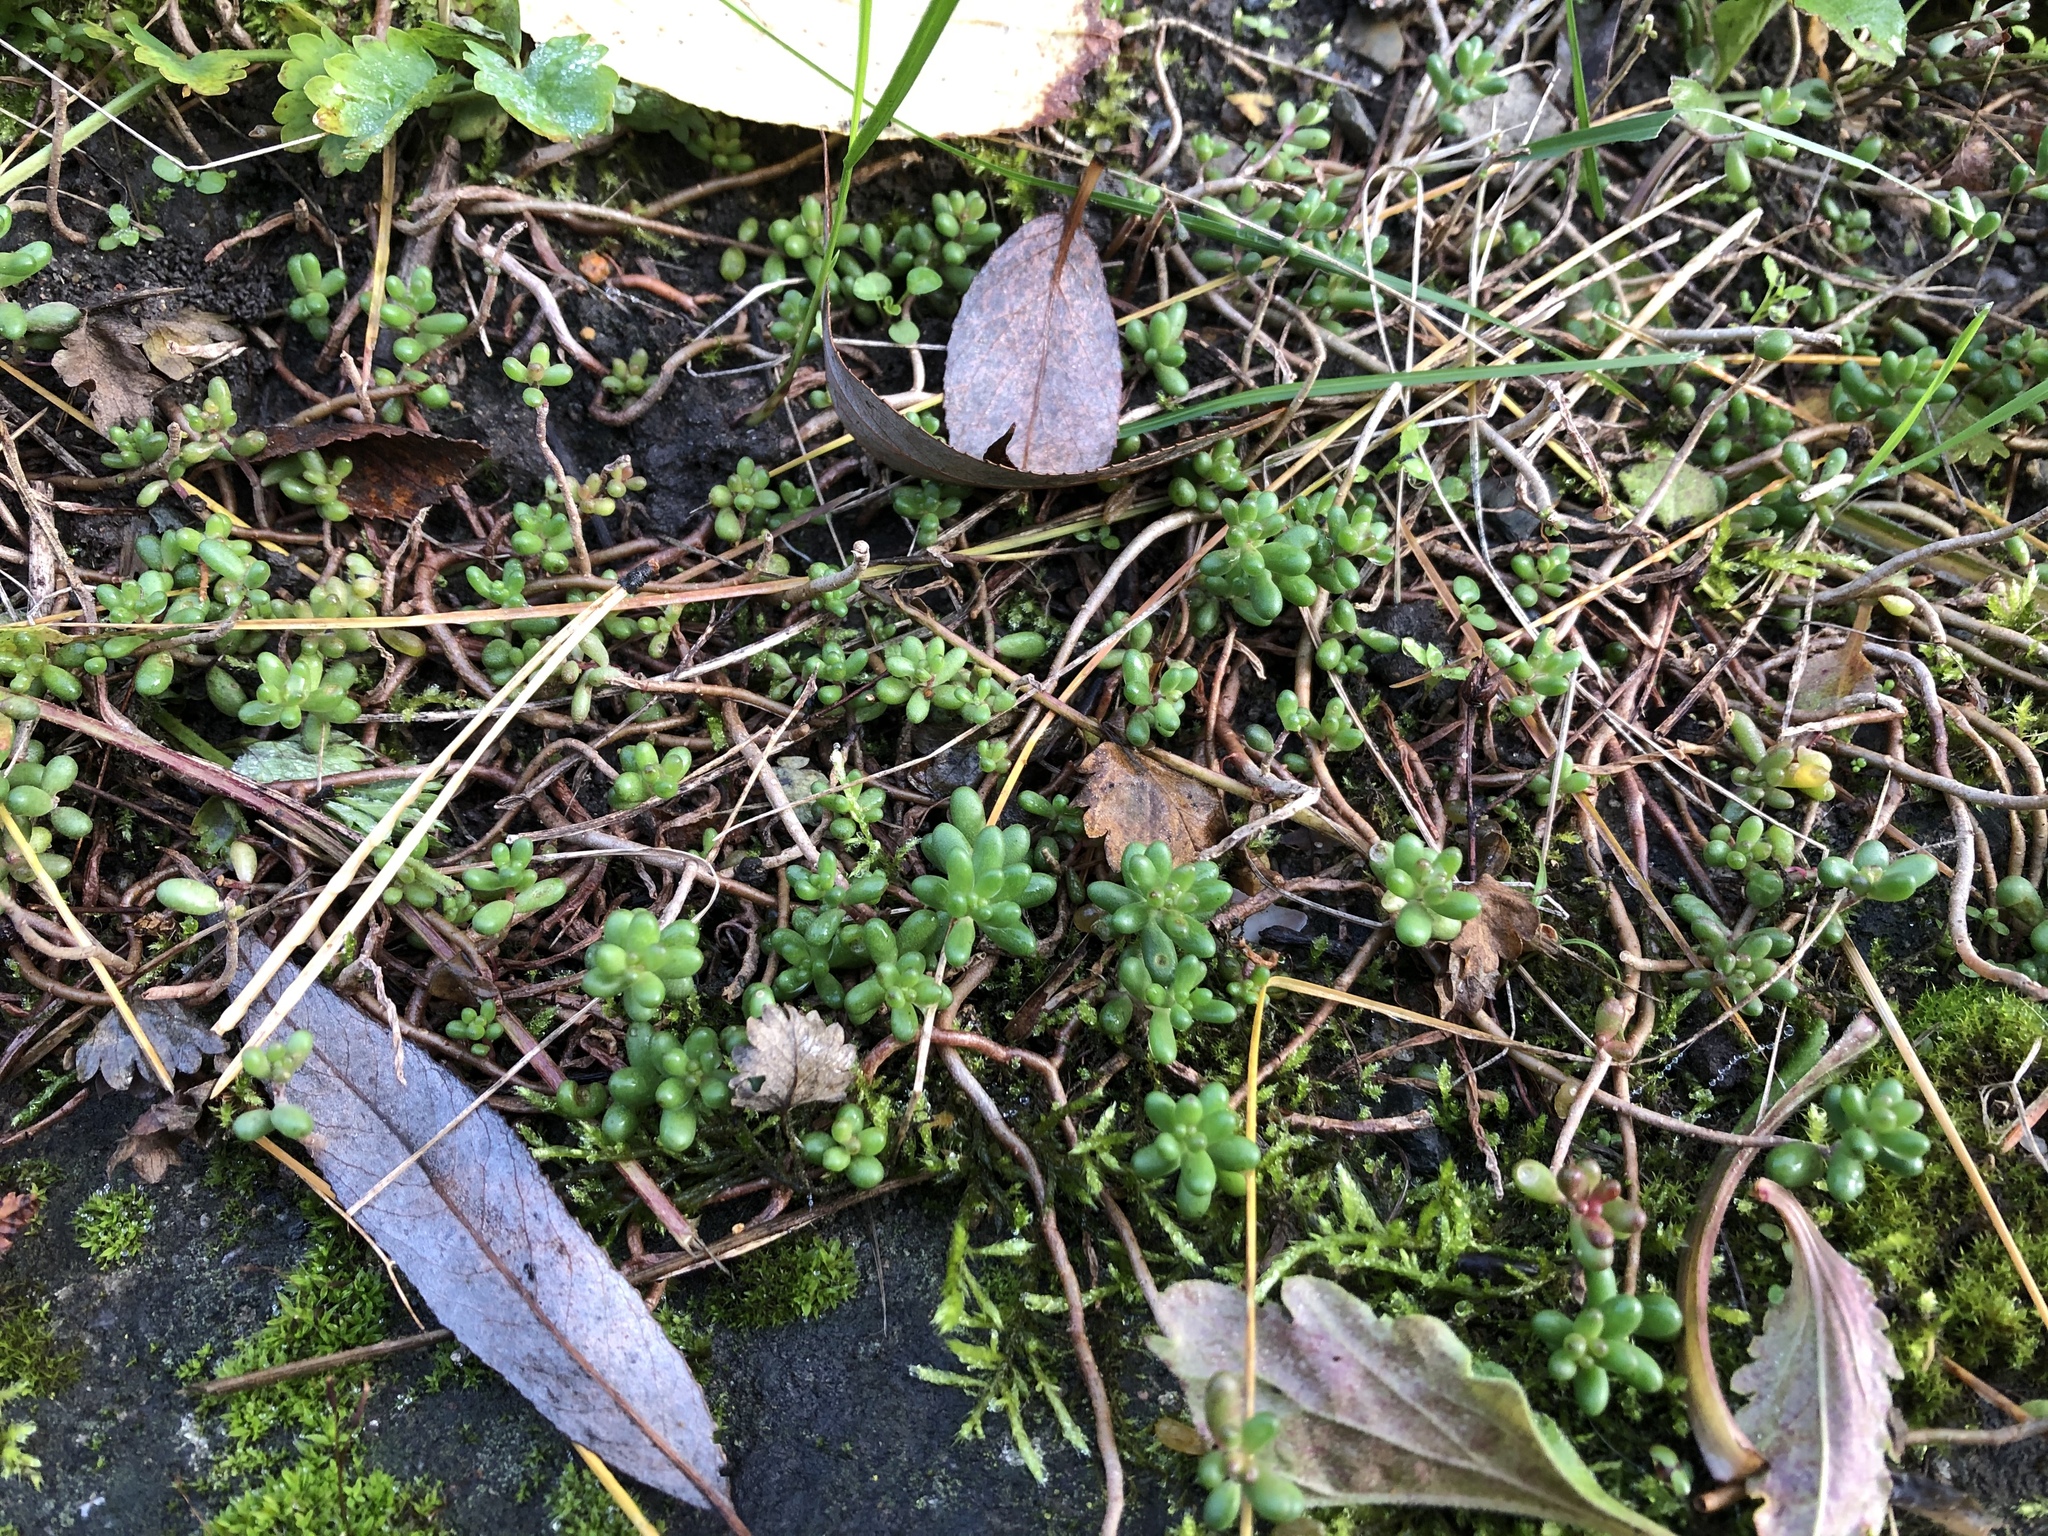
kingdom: Plantae
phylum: Tracheophyta
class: Magnoliopsida
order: Saxifragales
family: Crassulaceae
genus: Sedum
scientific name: Sedum album
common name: White stonecrop
